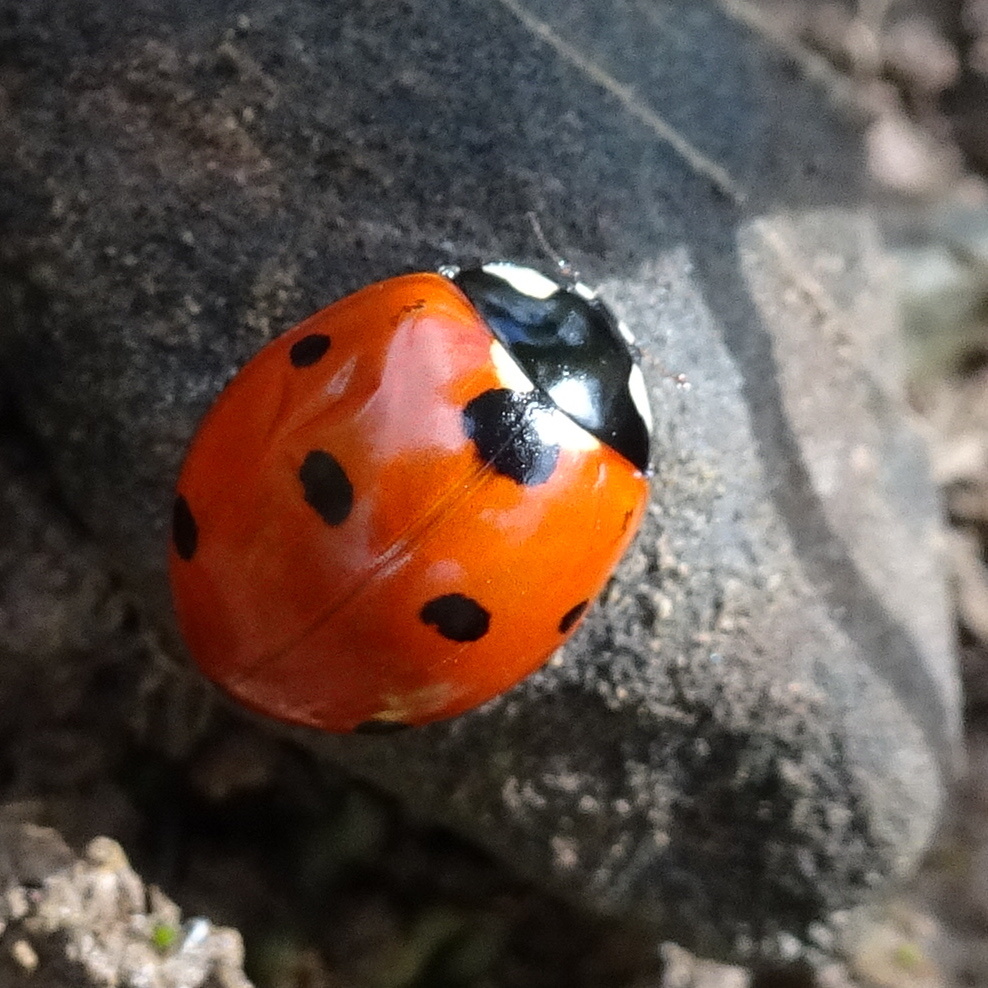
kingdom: Animalia
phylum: Arthropoda
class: Insecta
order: Coleoptera
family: Coccinellidae
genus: Coccinella
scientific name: Coccinella septempunctata
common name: Sevenspotted lady beetle
